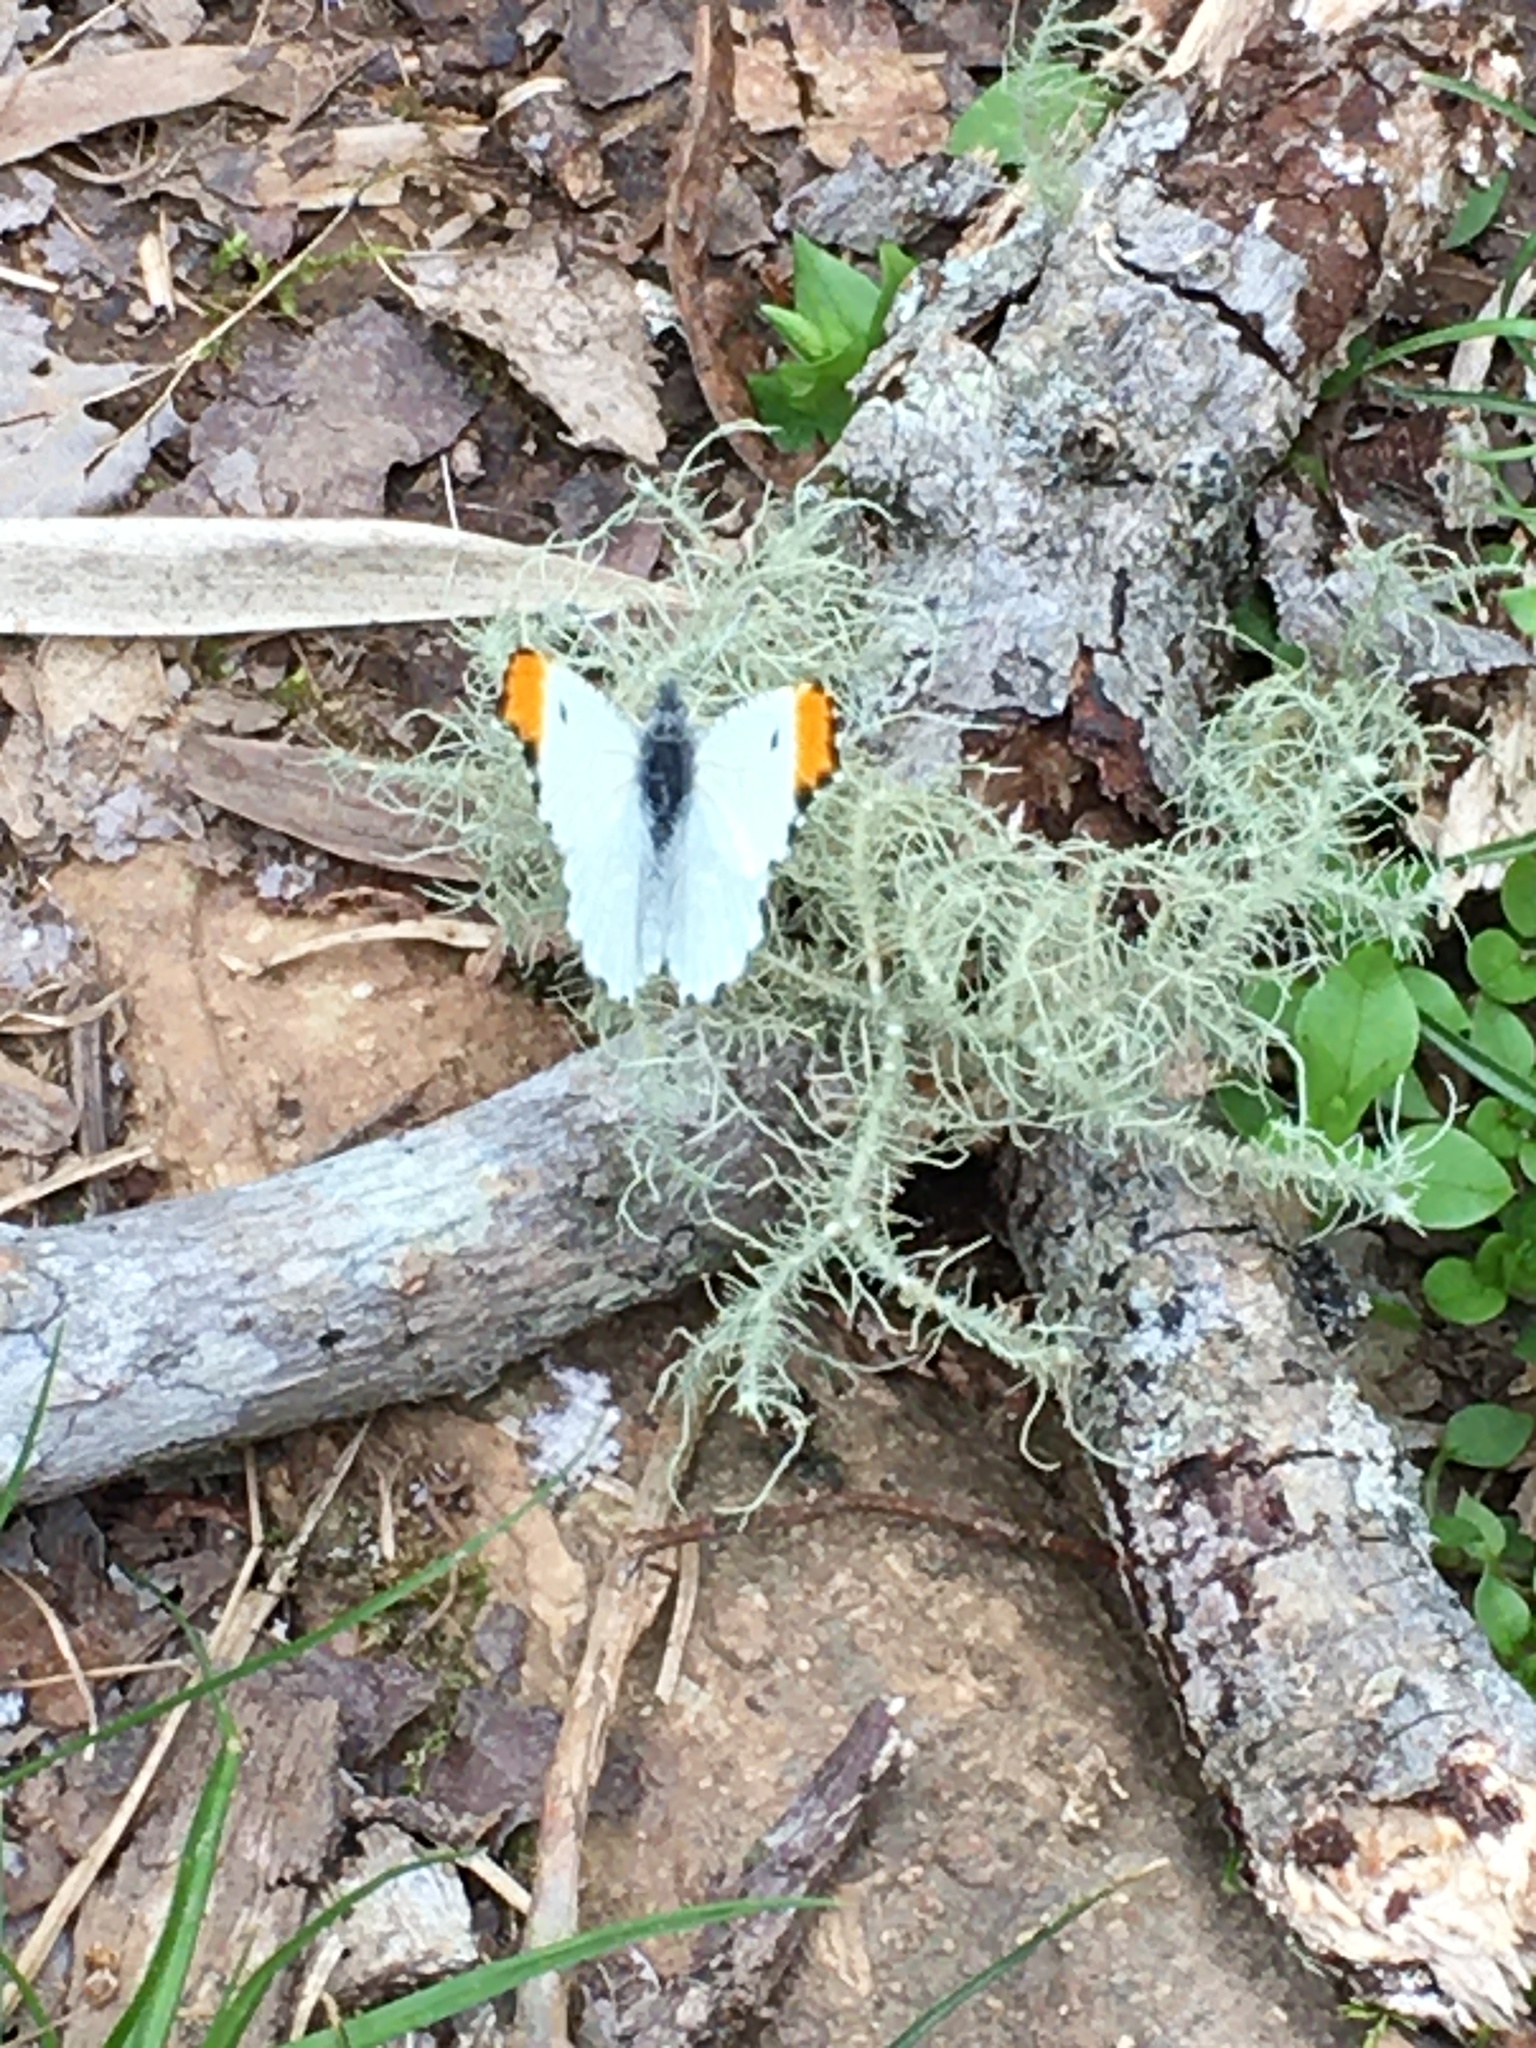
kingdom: Animalia
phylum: Arthropoda
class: Insecta
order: Lepidoptera
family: Pieridae
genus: Anthocharis
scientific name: Anthocharis midea
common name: Falcate orangetip
